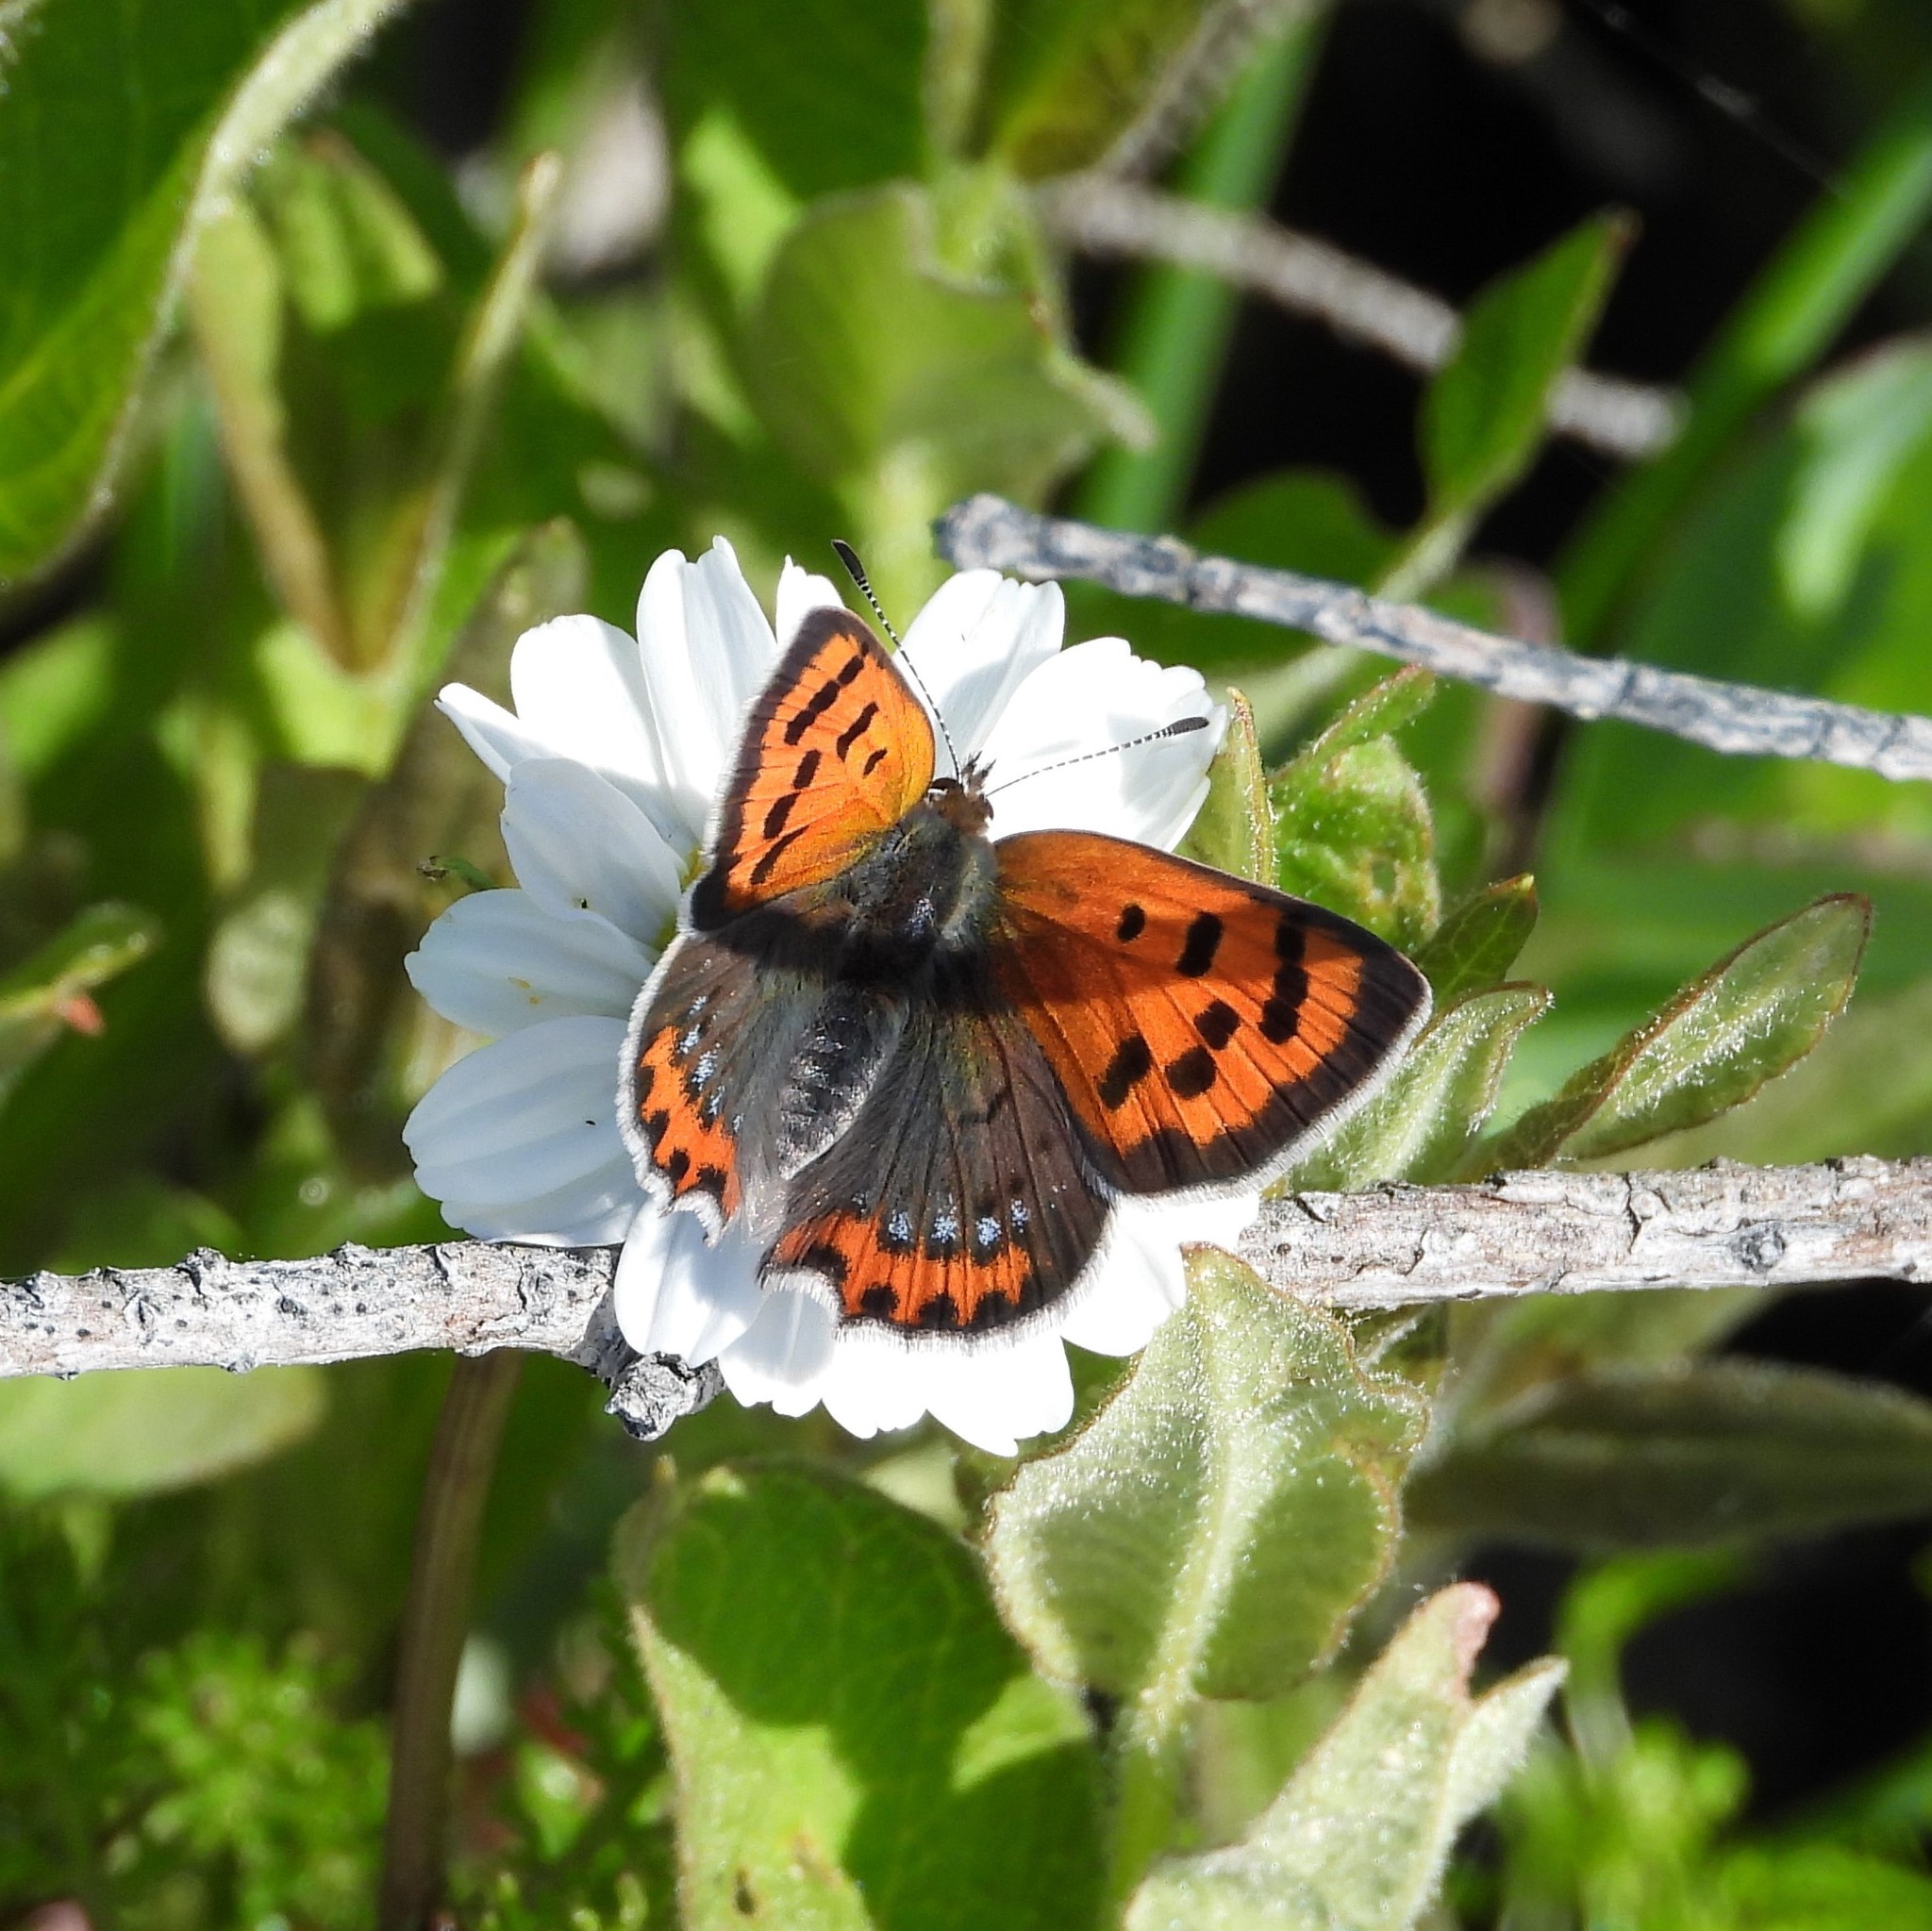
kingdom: Animalia
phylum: Arthropoda
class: Insecta
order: Lepidoptera
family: Lycaenidae
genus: Lycaena
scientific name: Lycaena phlaeas
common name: Small copper
